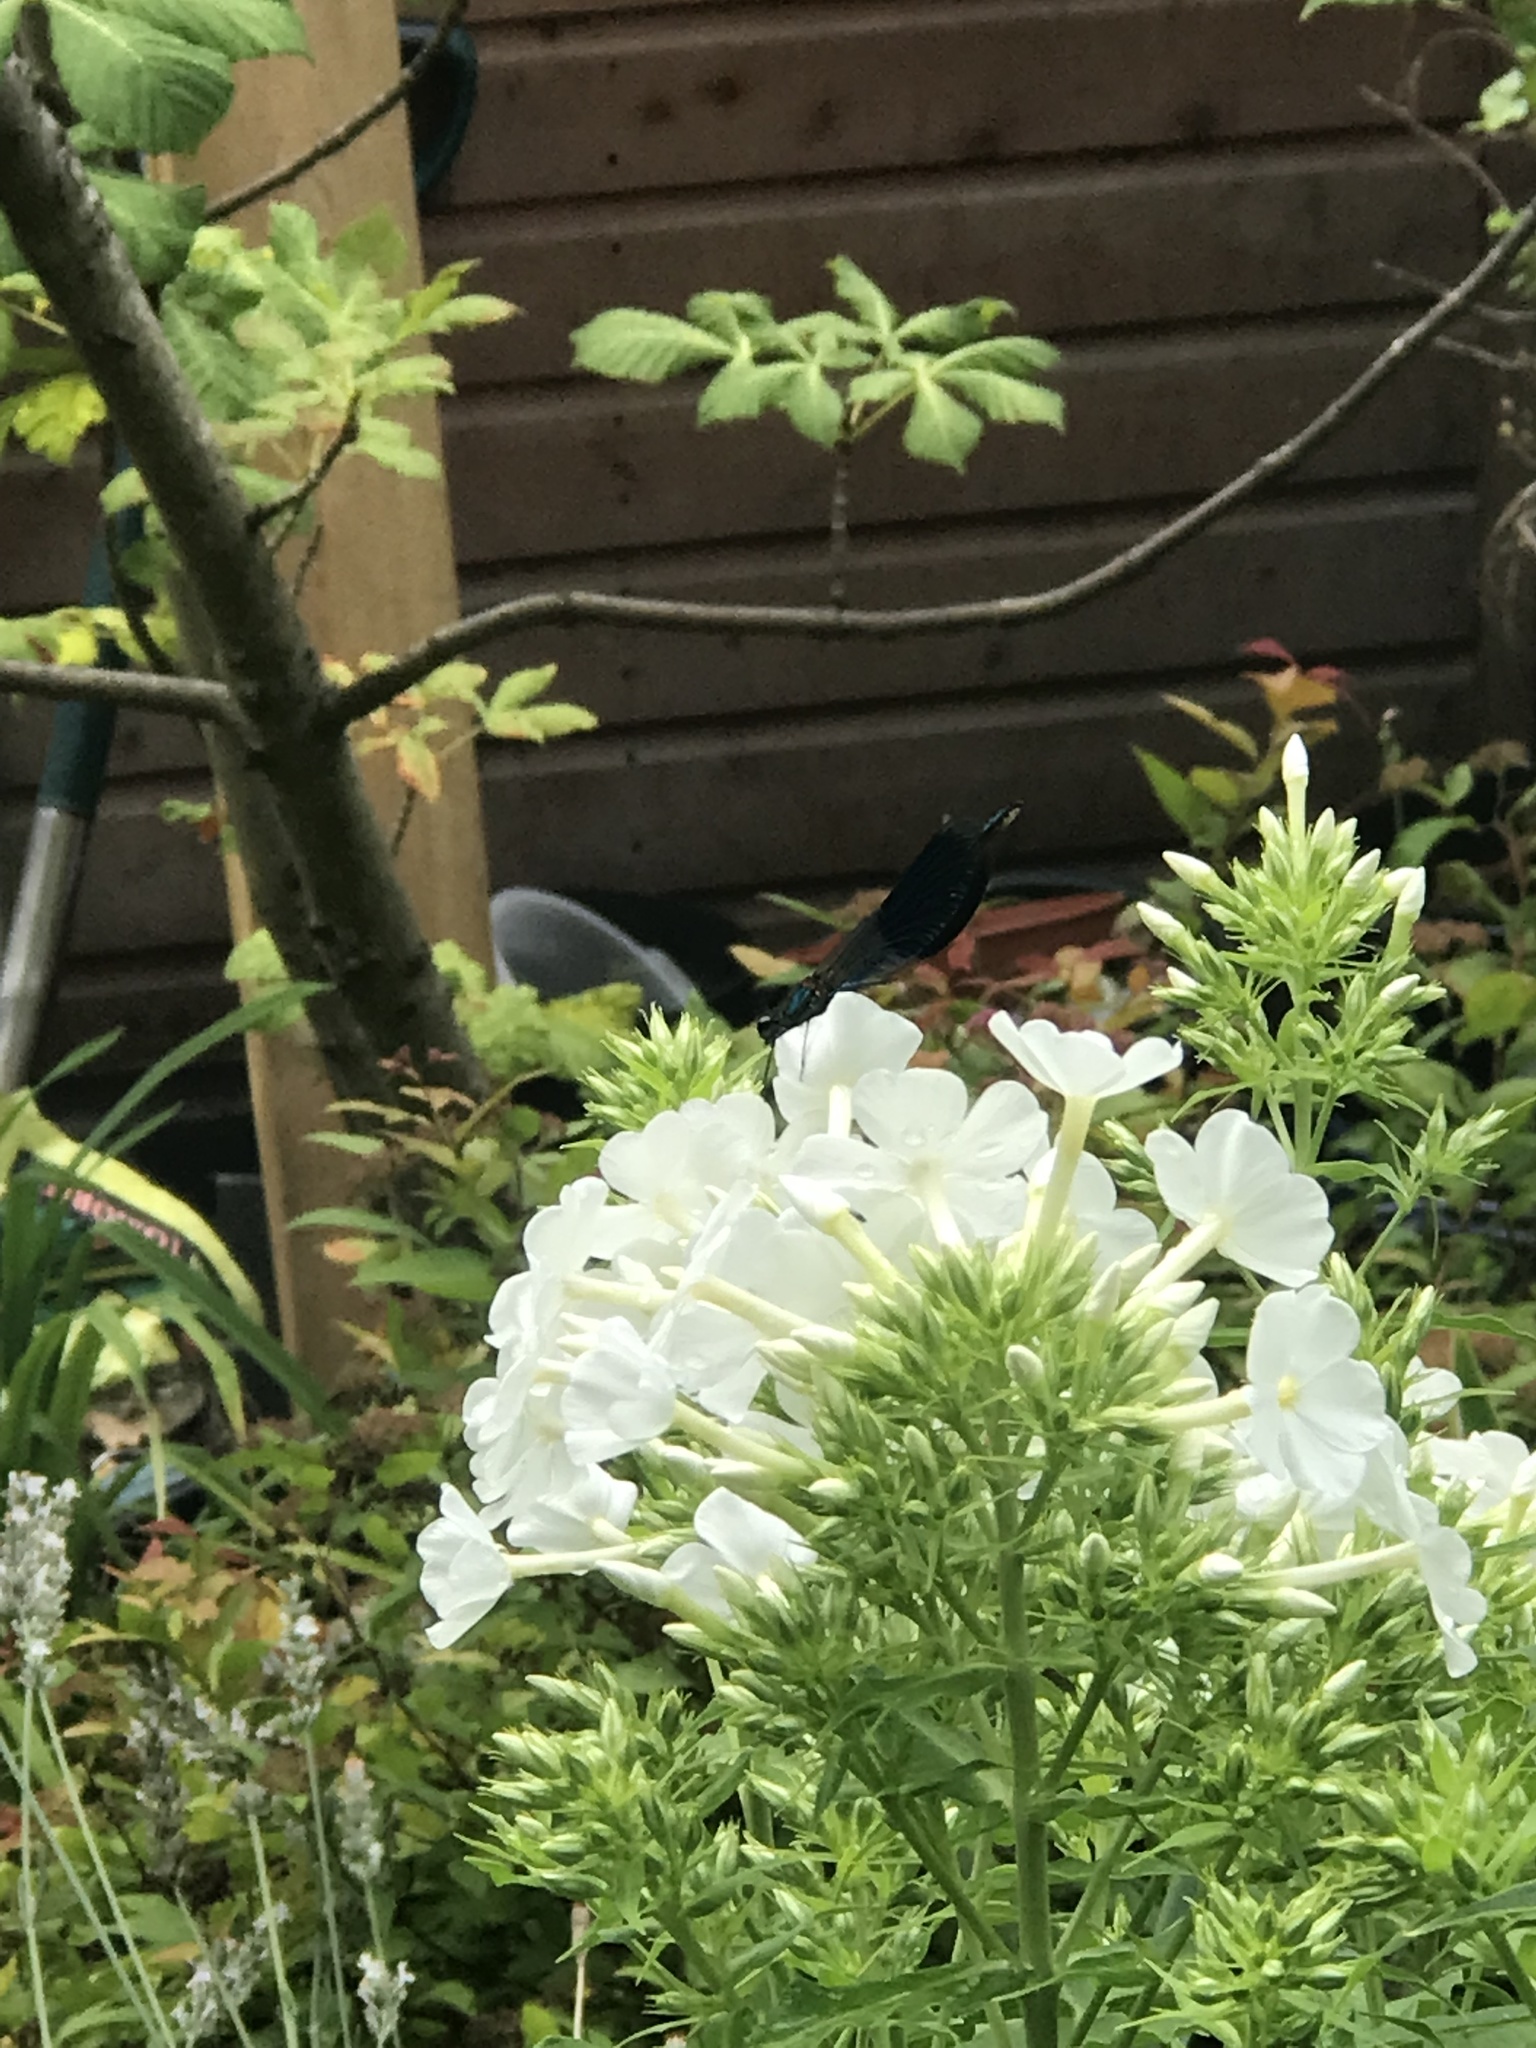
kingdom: Animalia
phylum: Arthropoda
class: Insecta
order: Odonata
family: Calopterygidae
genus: Calopteryx
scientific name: Calopteryx splendens
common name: Banded demoiselle
